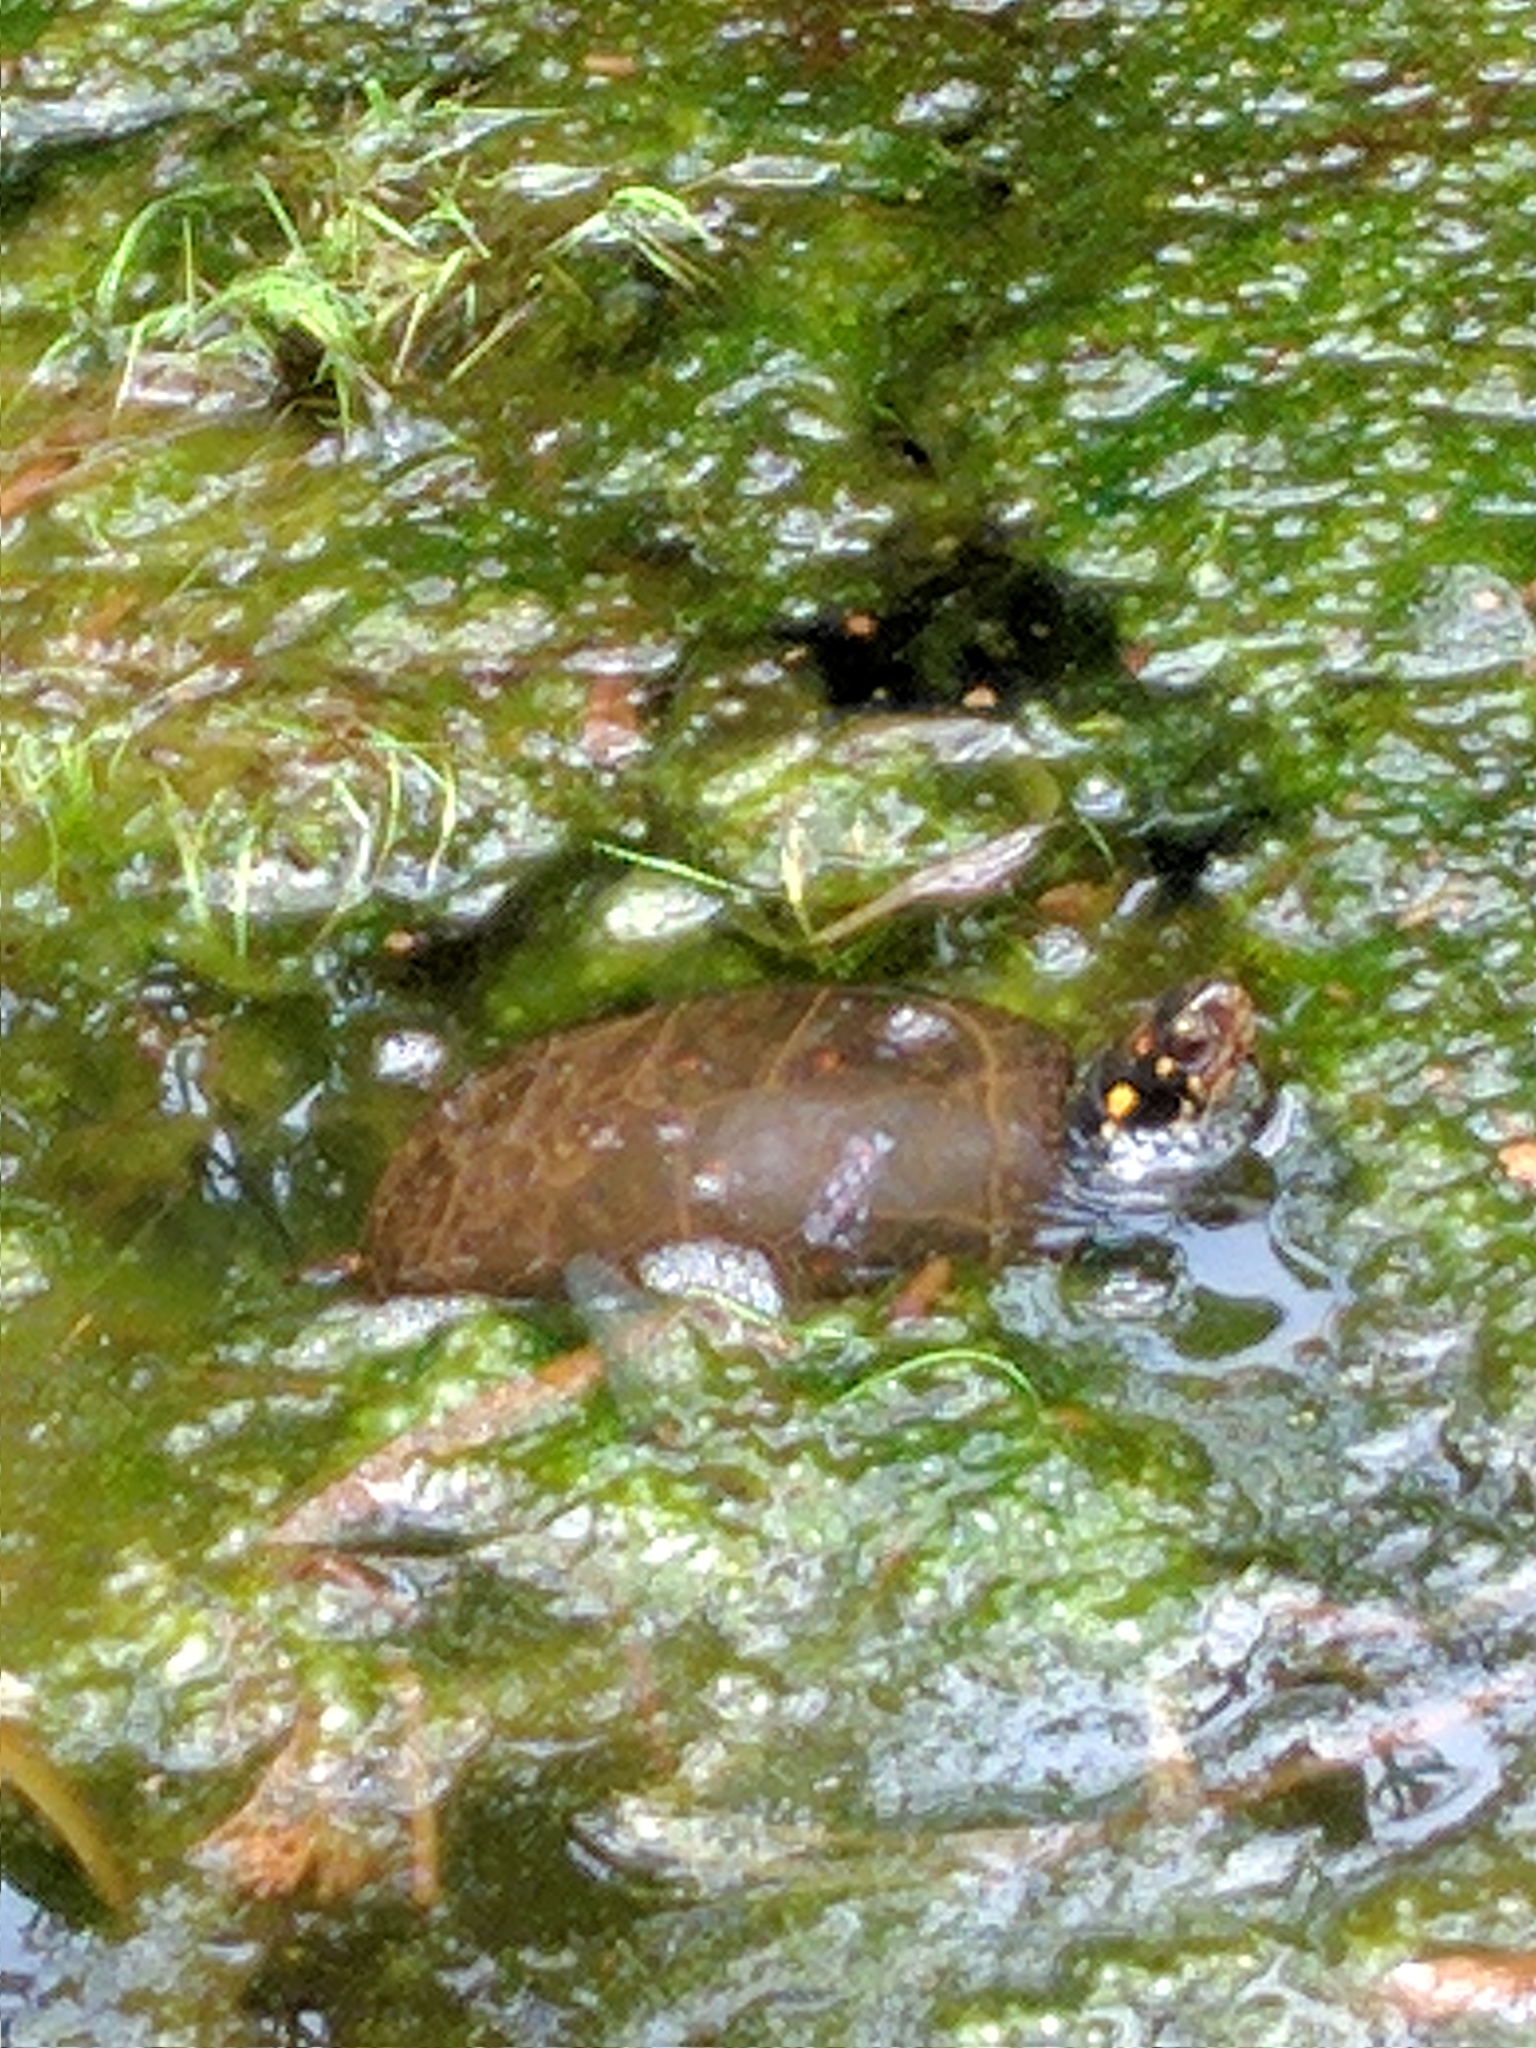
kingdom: Animalia
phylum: Chordata
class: Testudines
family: Emydidae
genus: Clemmys
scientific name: Clemmys guttata
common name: Spotted turtle
